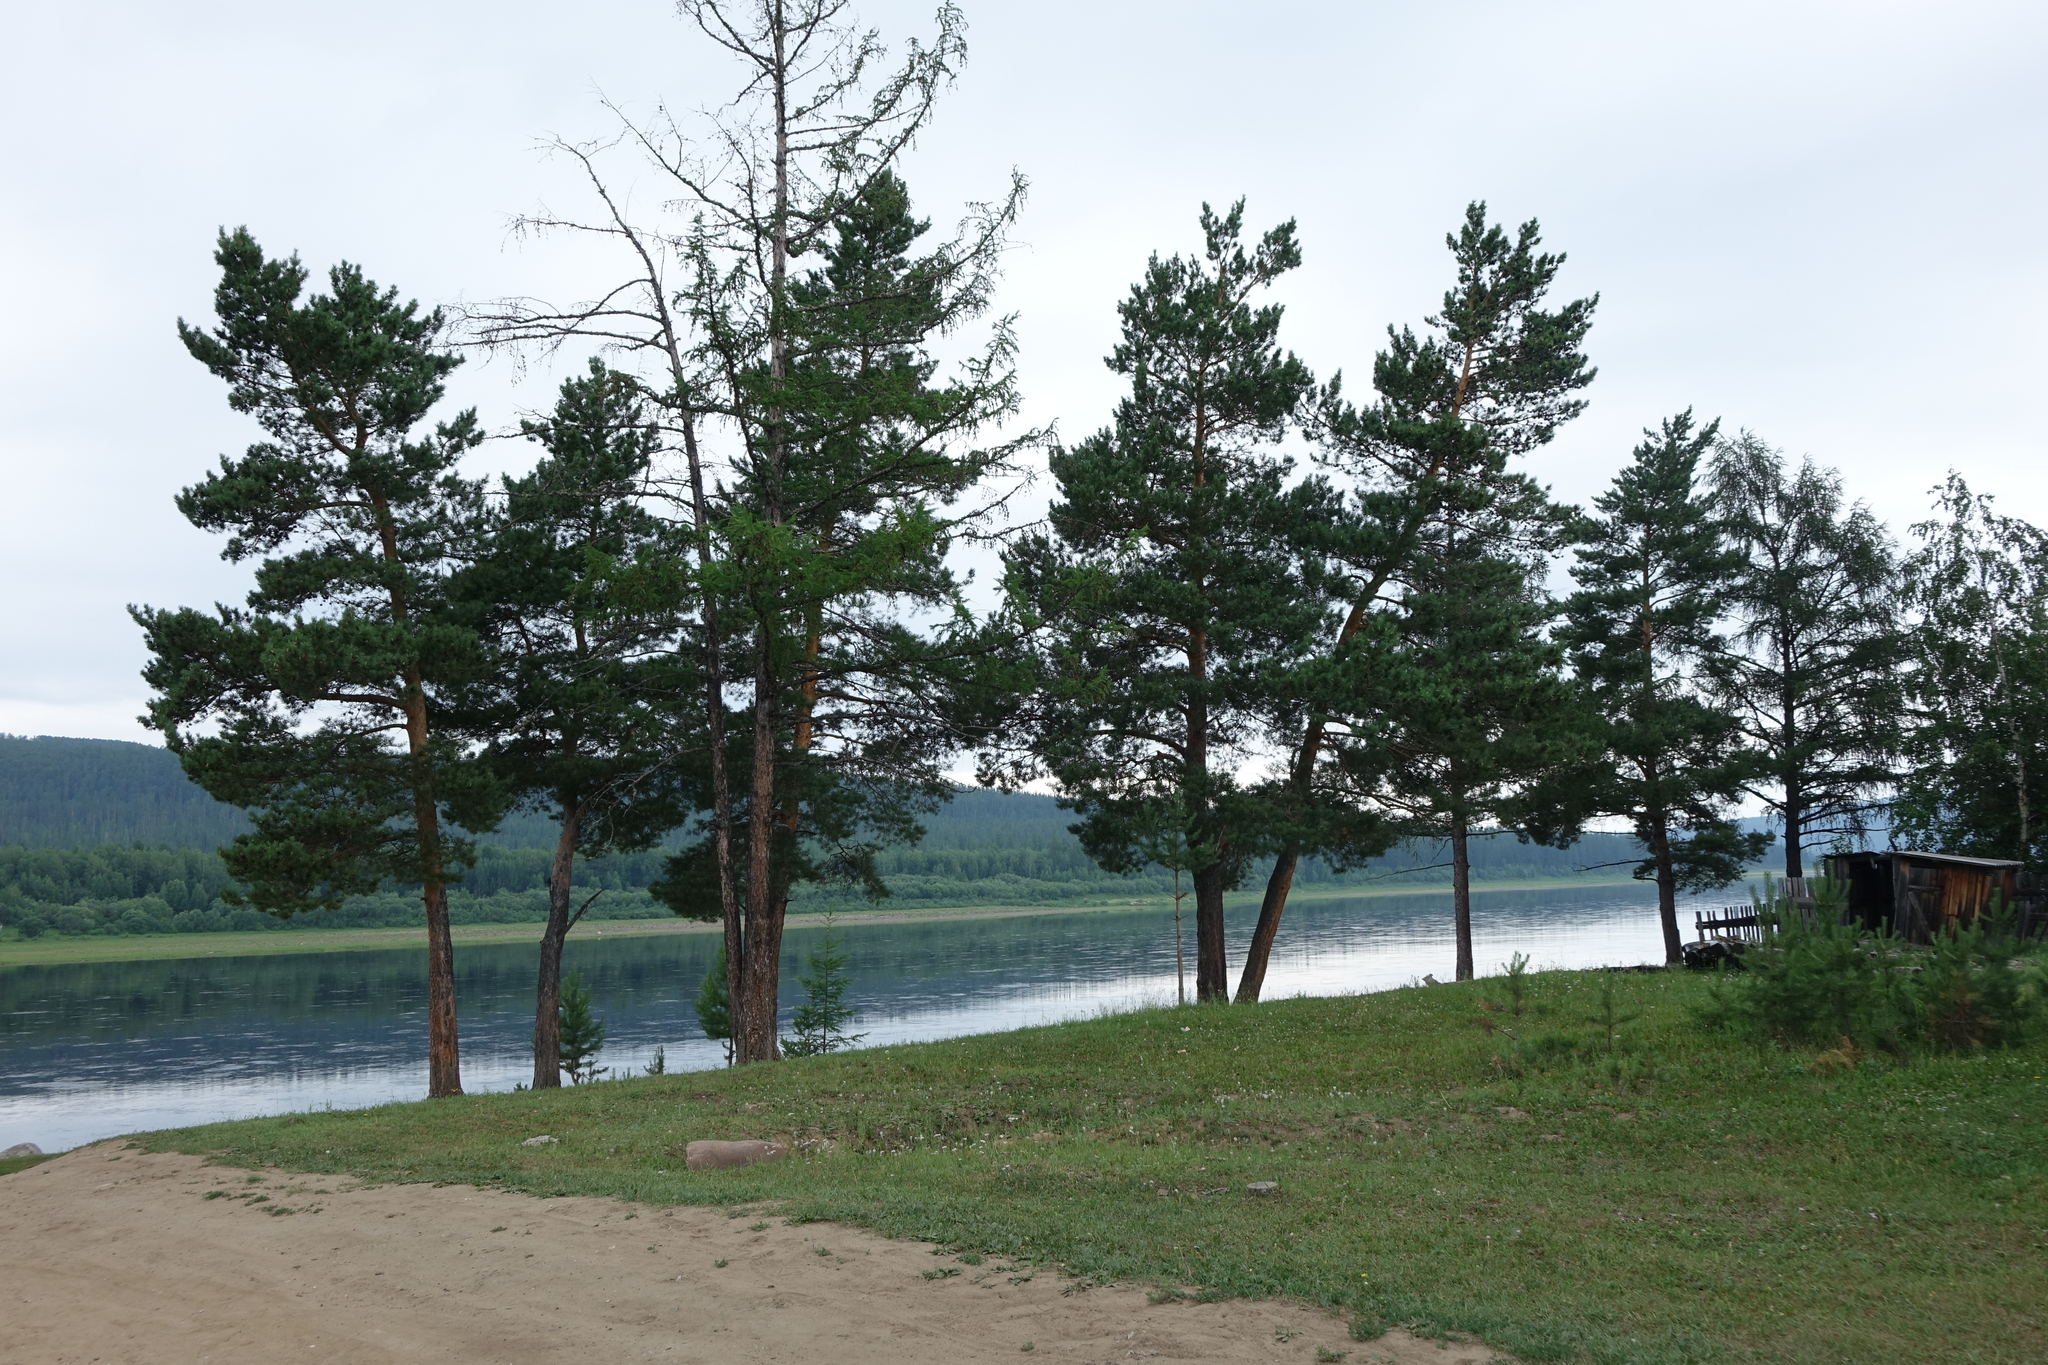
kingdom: Plantae
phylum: Tracheophyta
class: Pinopsida
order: Pinales
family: Pinaceae
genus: Pinus
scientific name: Pinus sylvestris
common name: Scots pine
